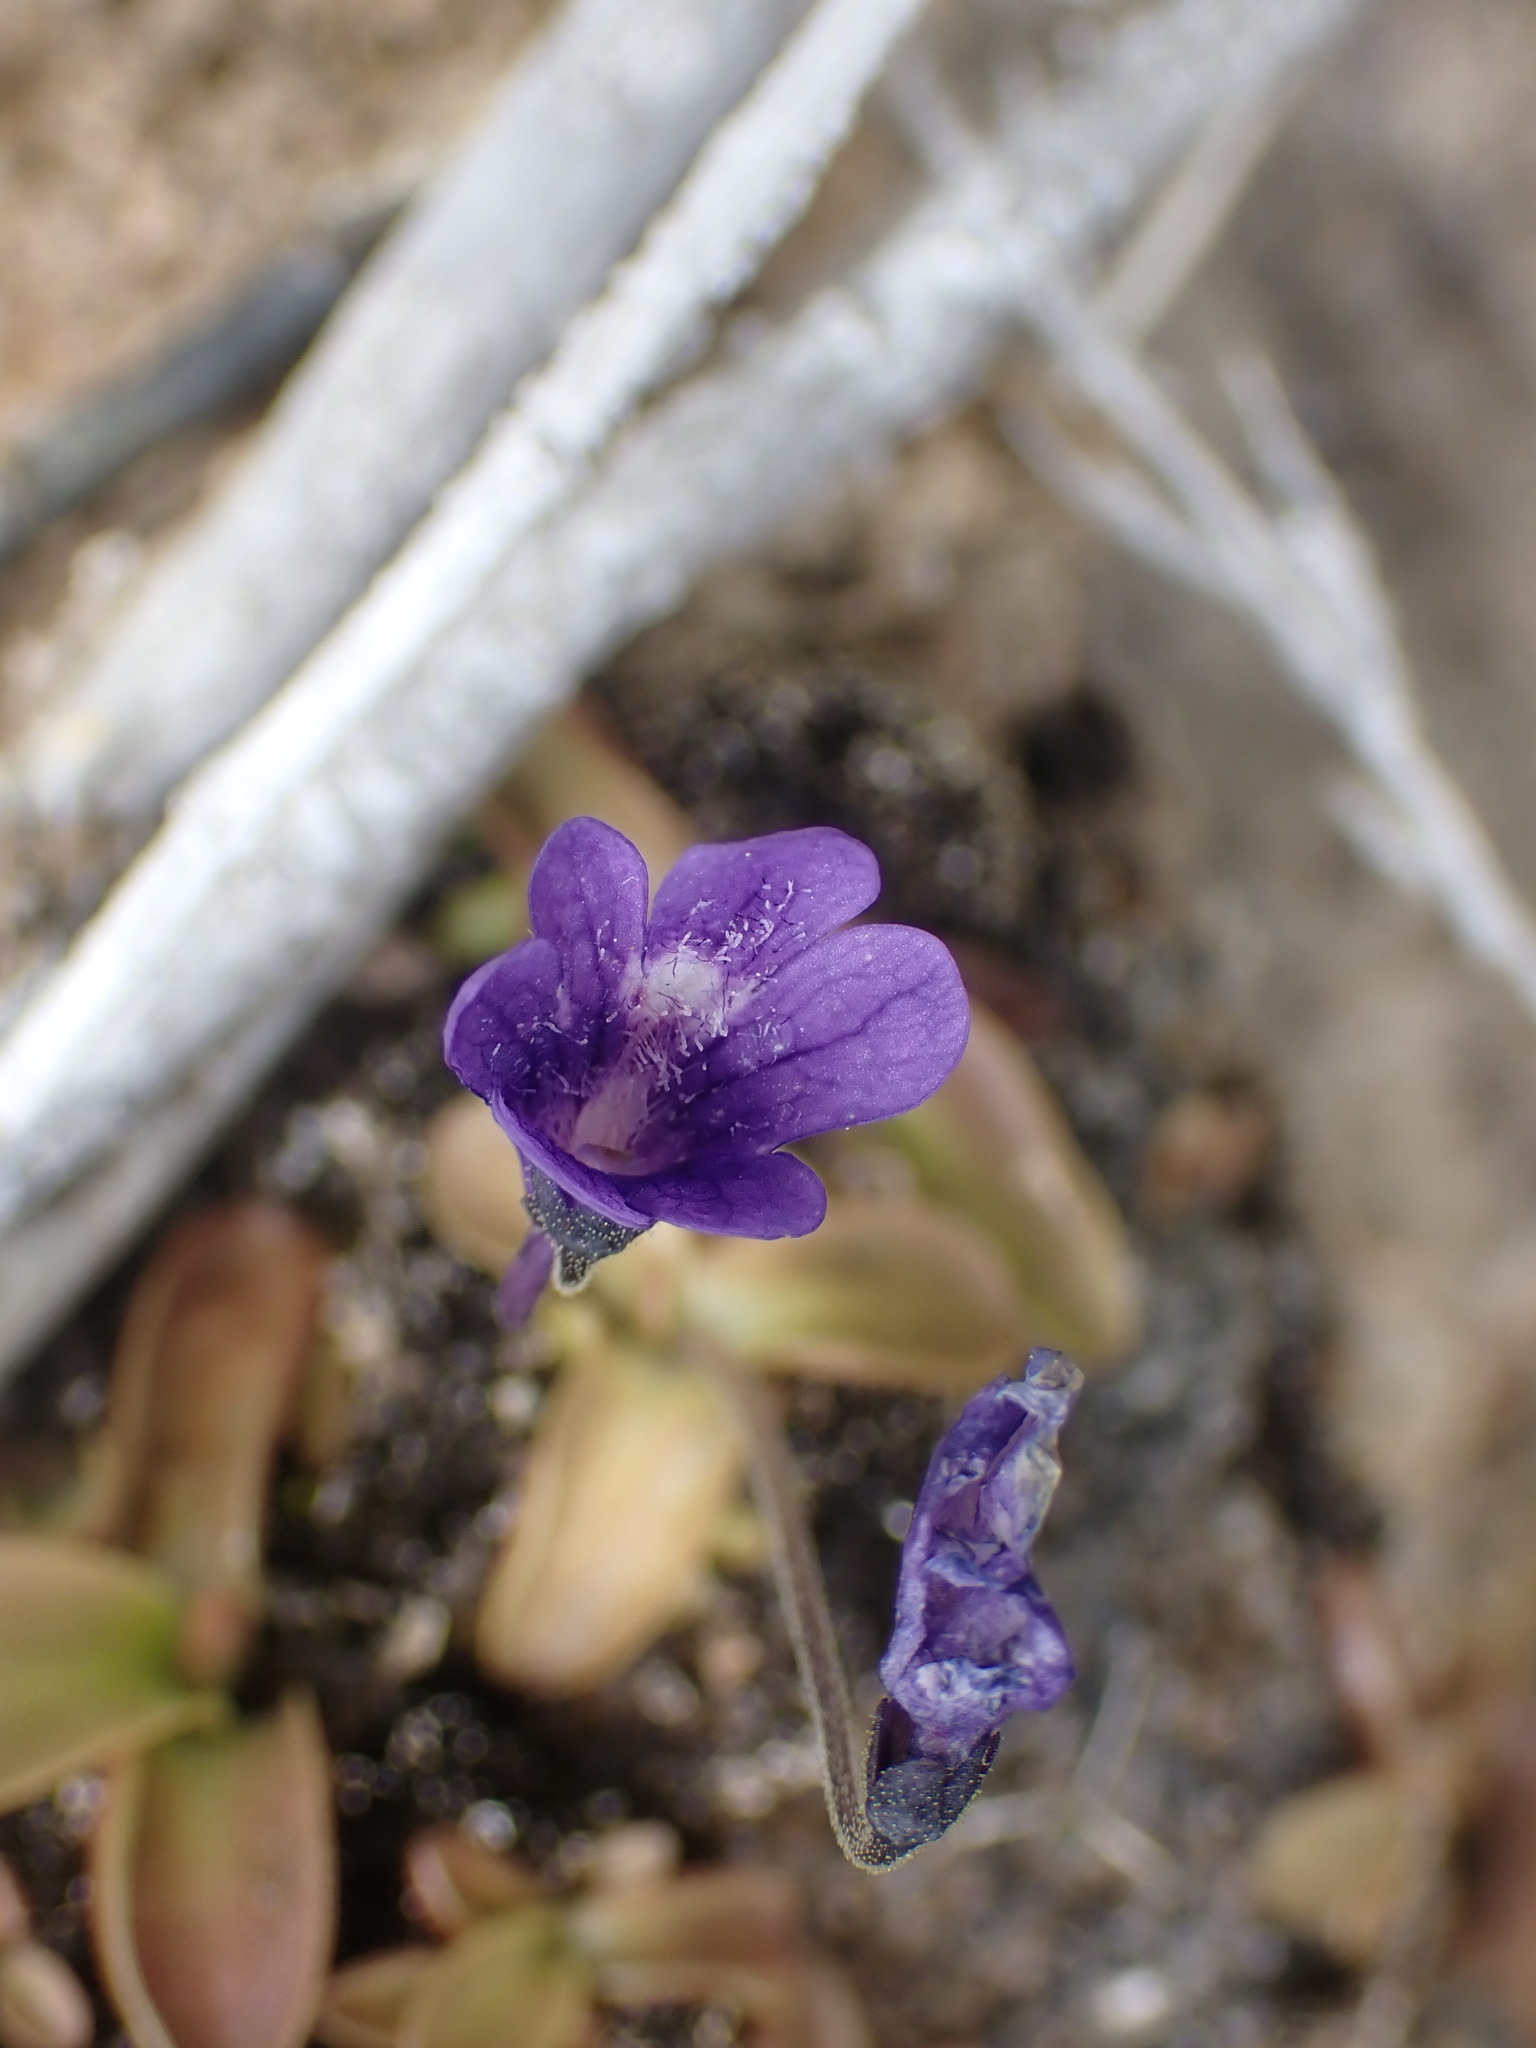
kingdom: Plantae
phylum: Tracheophyta
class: Magnoliopsida
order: Lamiales
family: Lentibulariaceae
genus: Pinguicula
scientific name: Pinguicula macroceras
